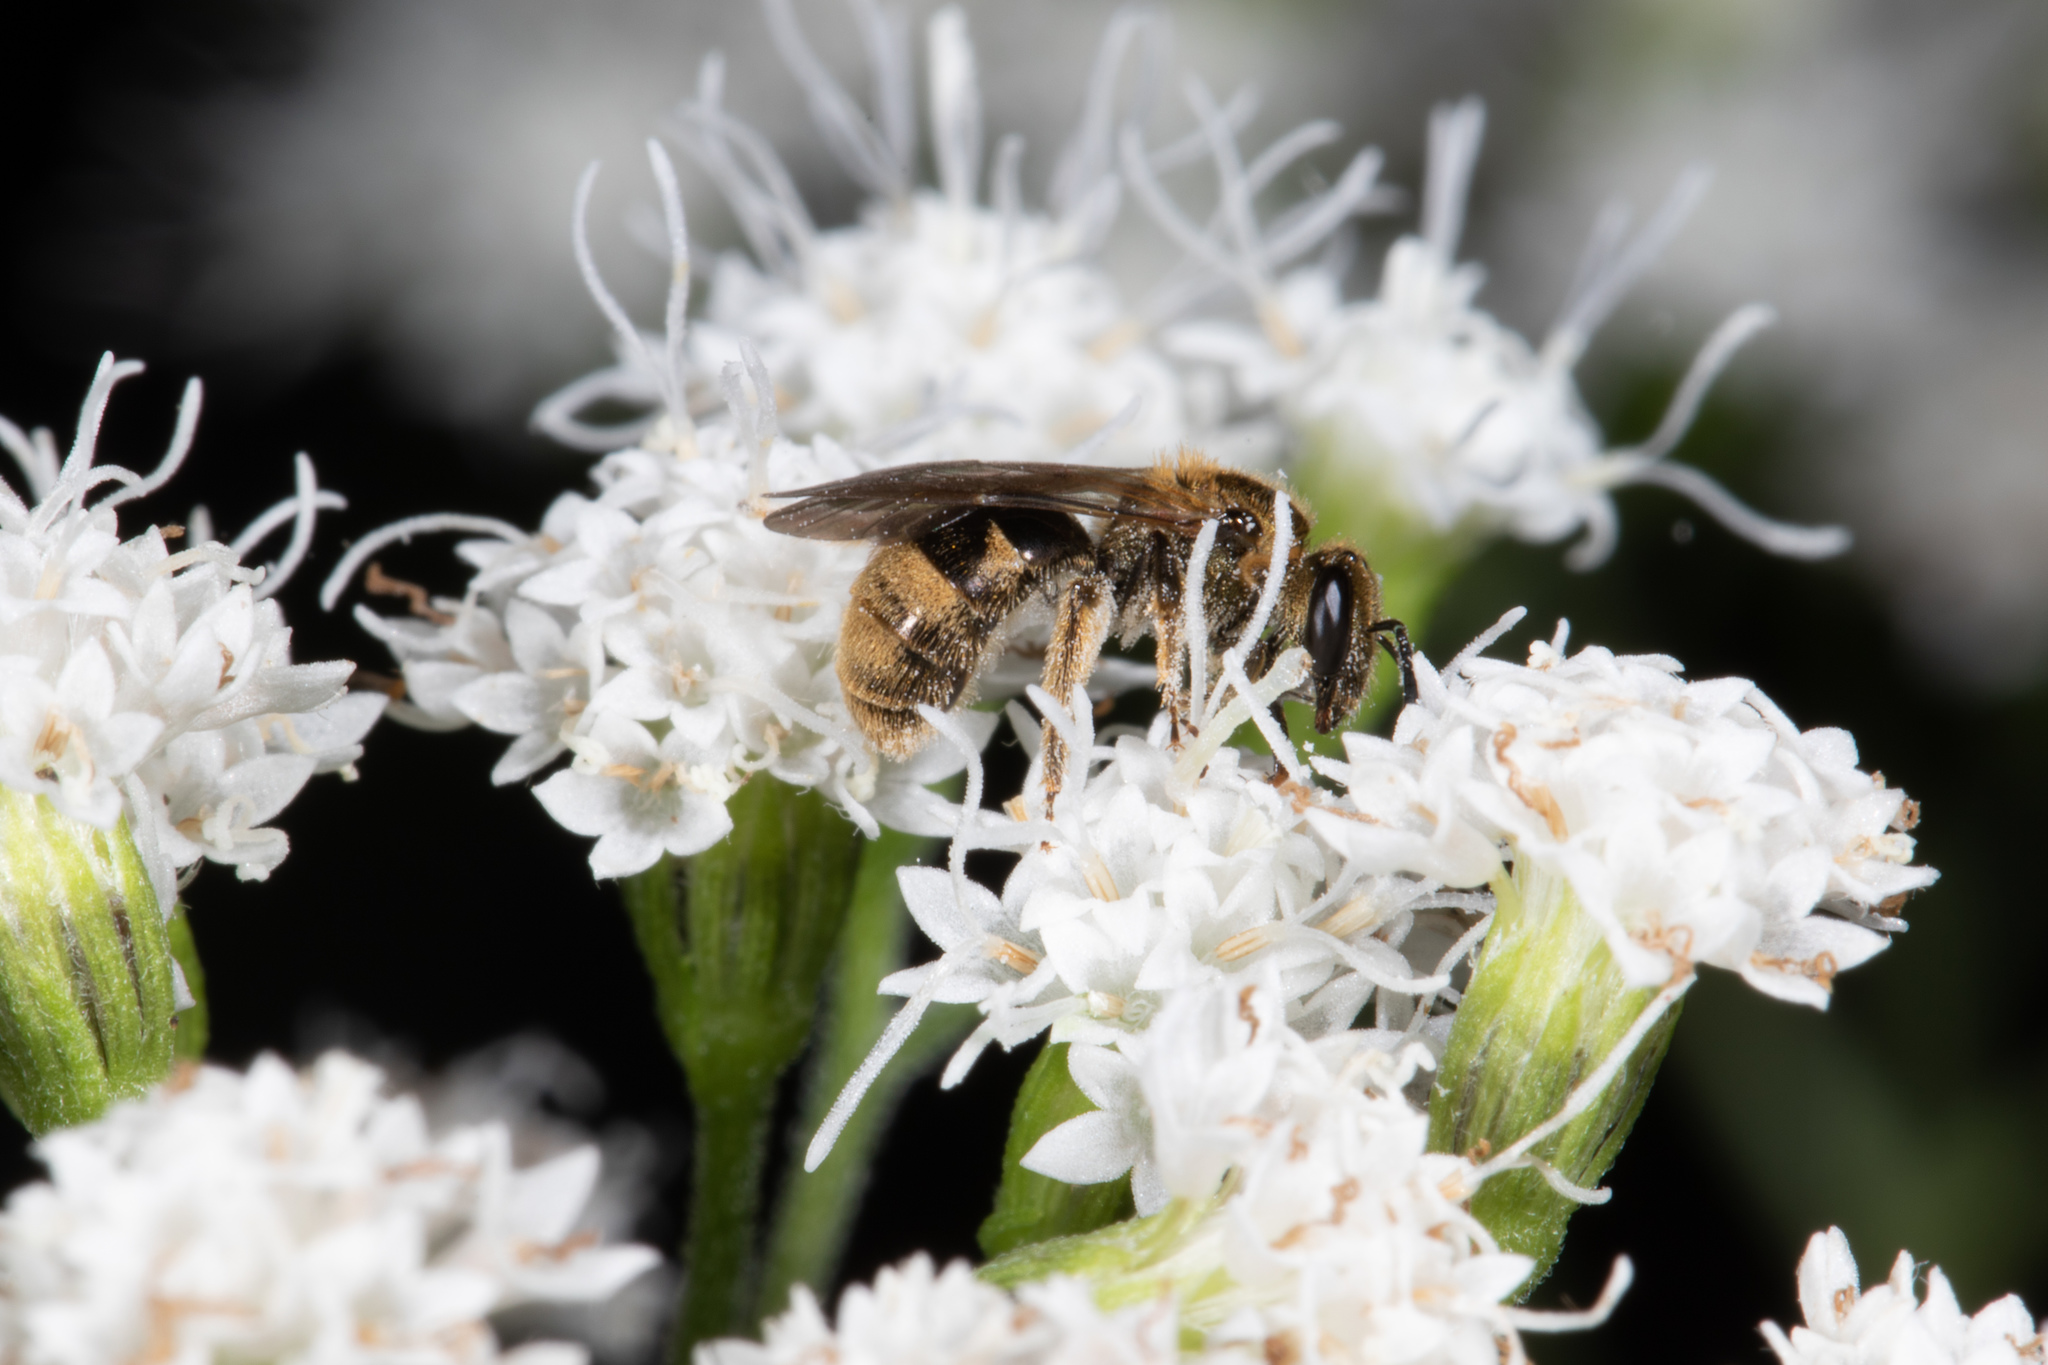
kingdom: Animalia
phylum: Arthropoda
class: Insecta
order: Hymenoptera
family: Halictidae
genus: Dialictus
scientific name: Dialictus
